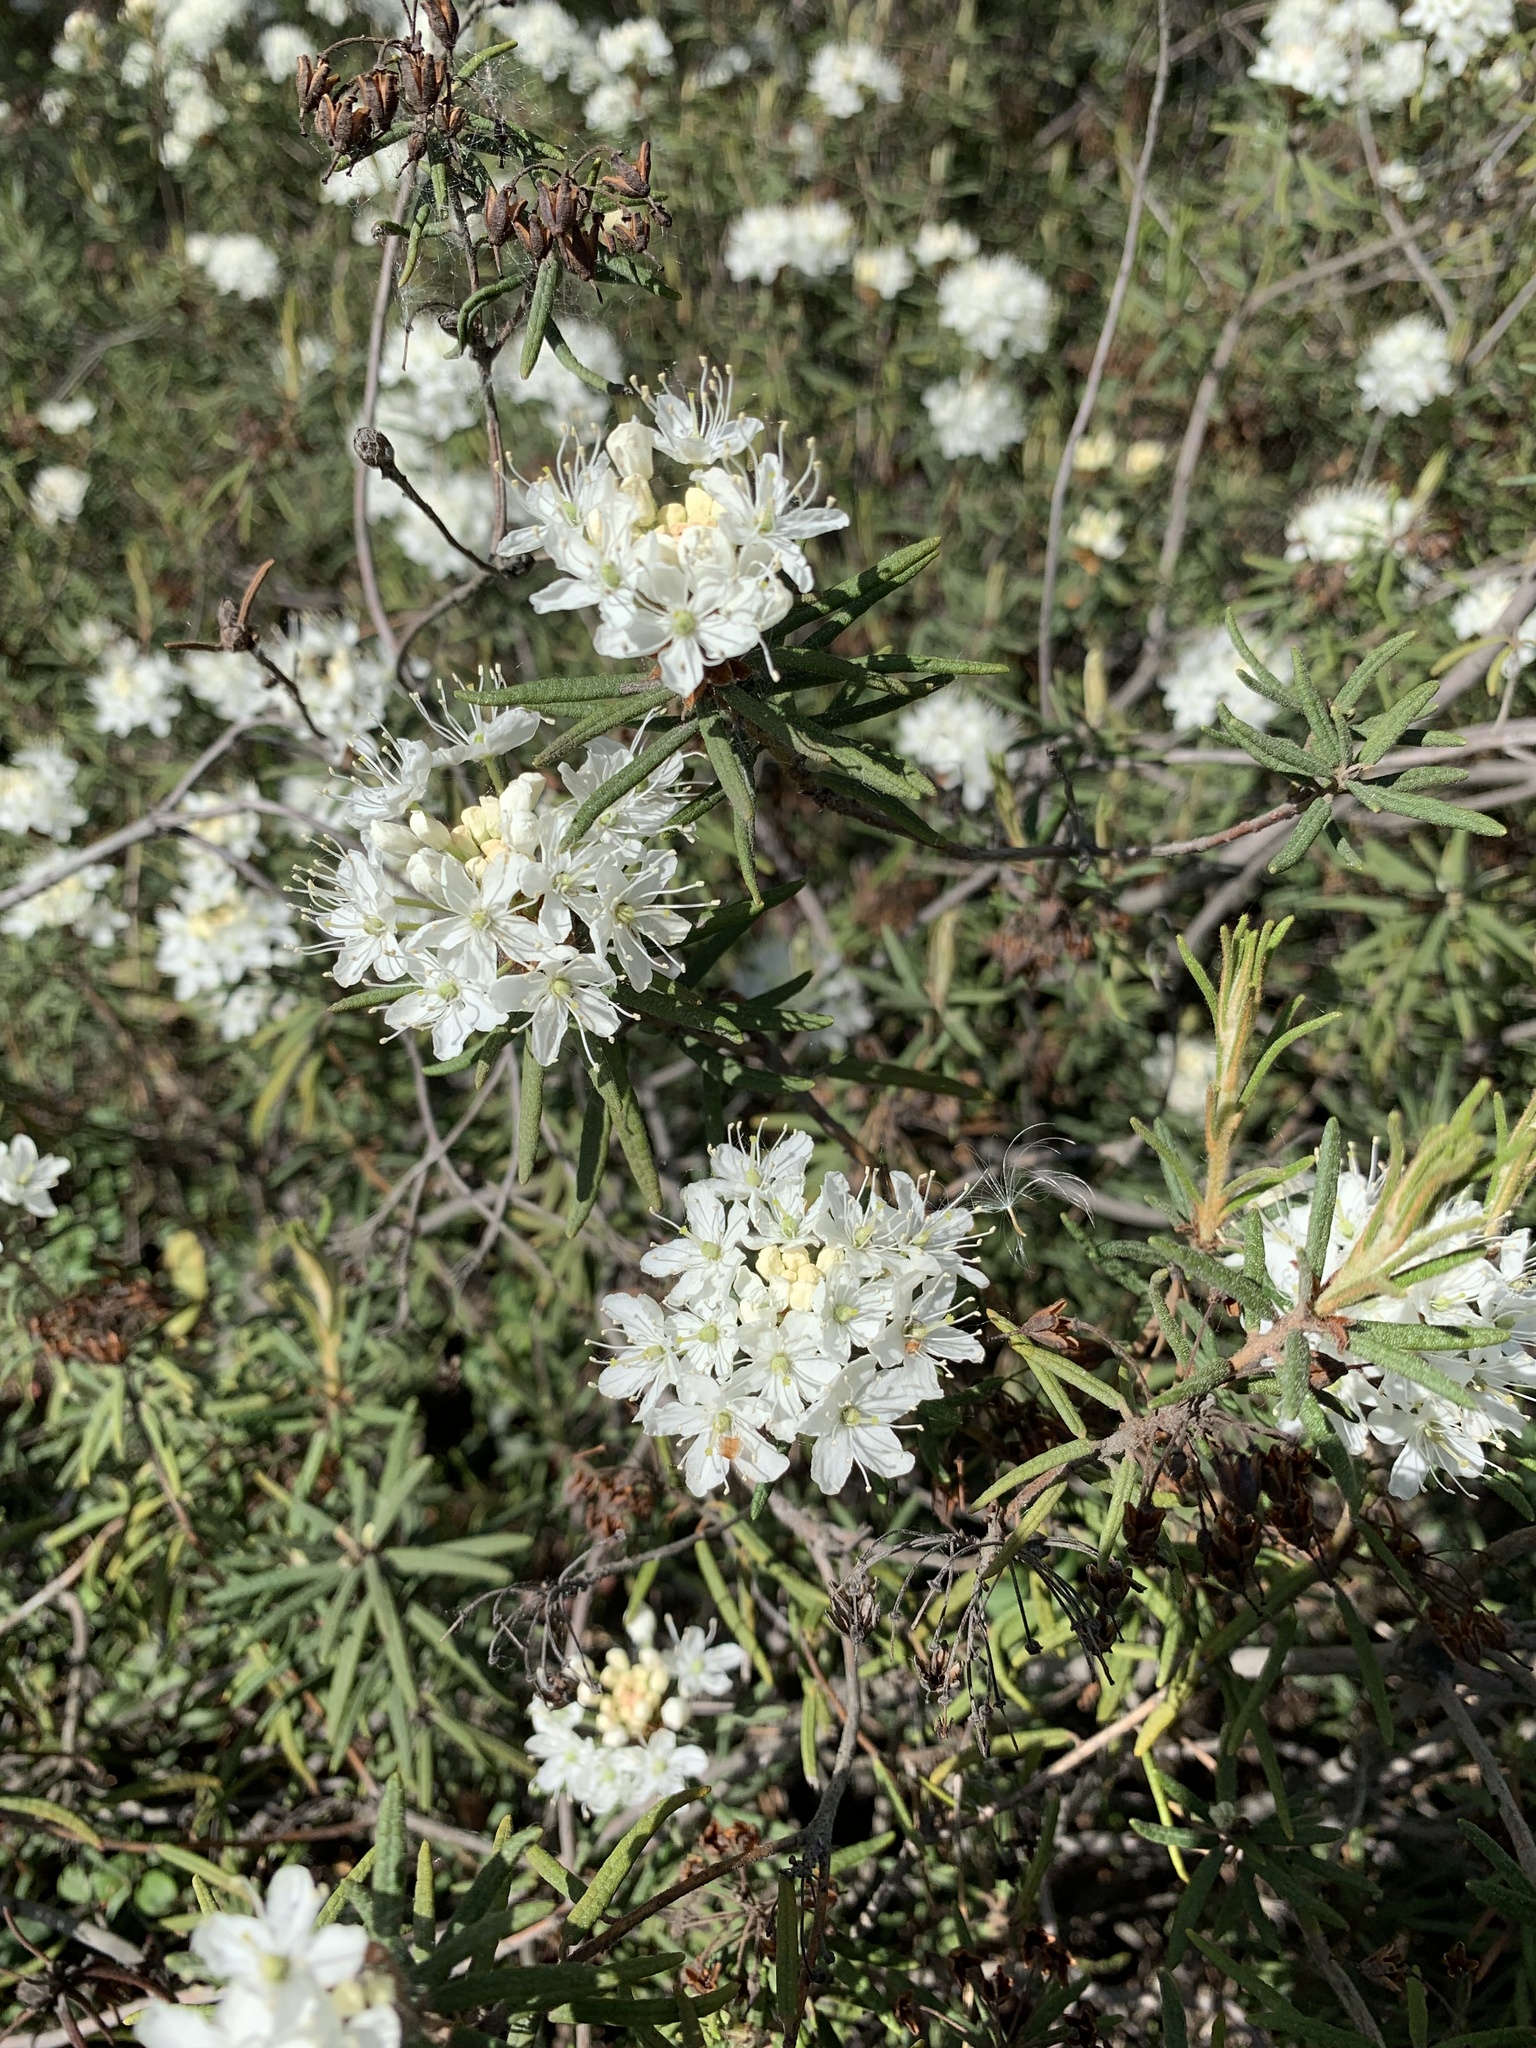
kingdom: Plantae
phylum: Tracheophyta
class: Magnoliopsida
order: Ericales
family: Ericaceae
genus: Rhododendron
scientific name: Rhododendron tomentosum
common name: Marsh labrador tea
